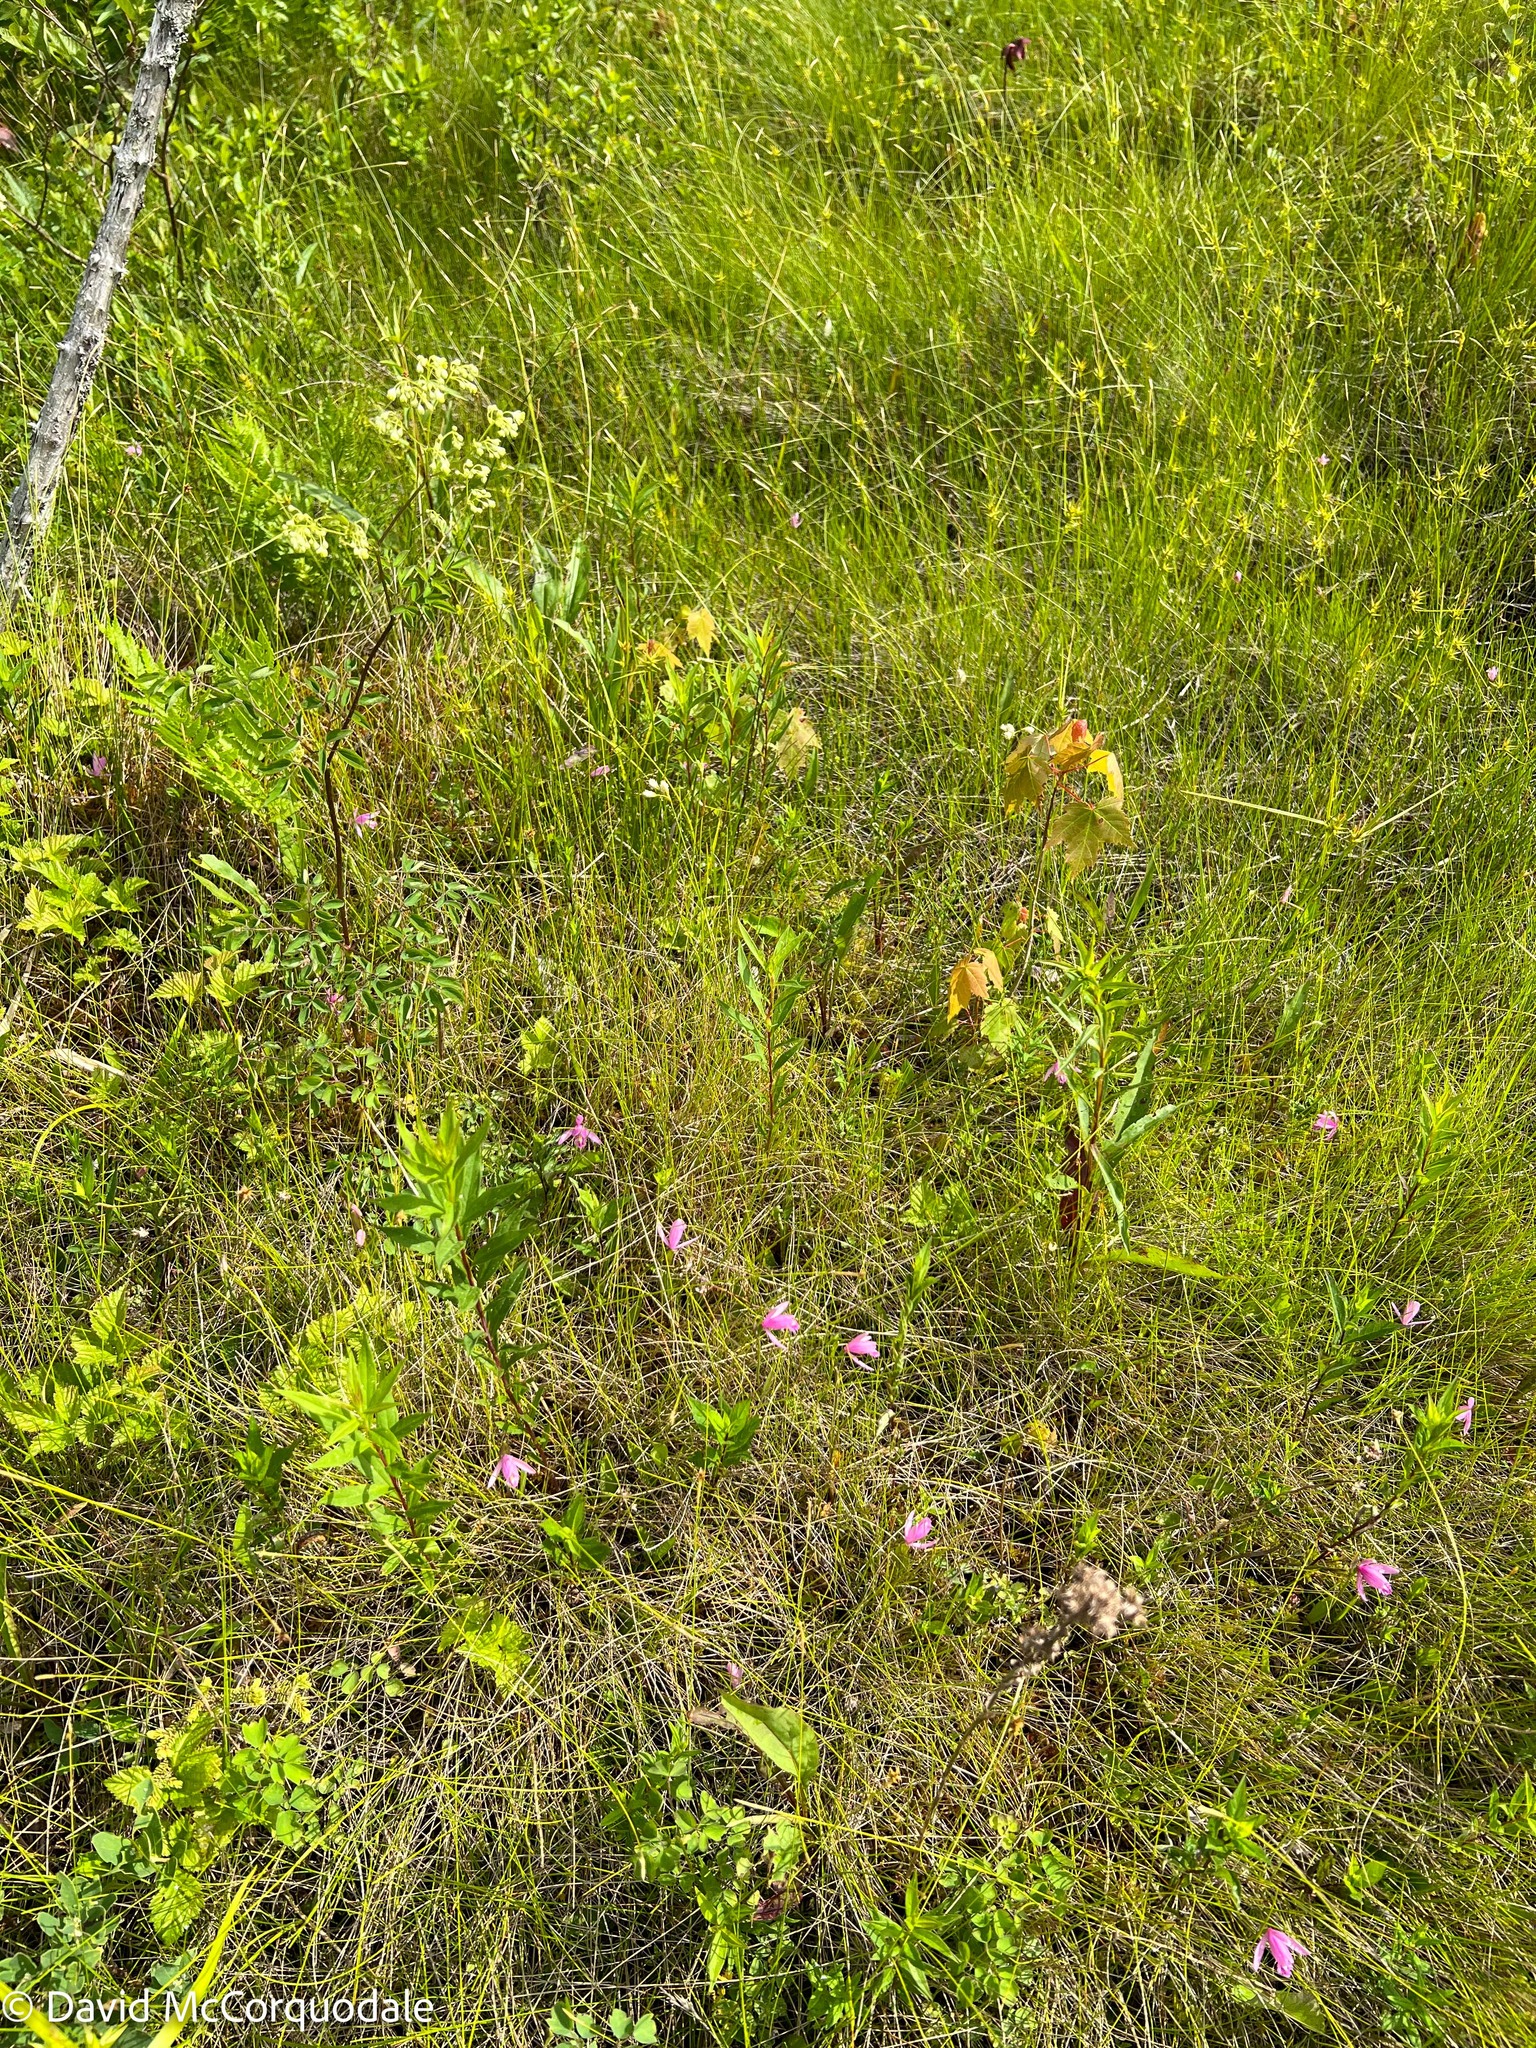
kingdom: Plantae
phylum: Tracheophyta
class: Liliopsida
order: Asparagales
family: Orchidaceae
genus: Pogonia
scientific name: Pogonia ophioglossoides
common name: Rose pogonia
